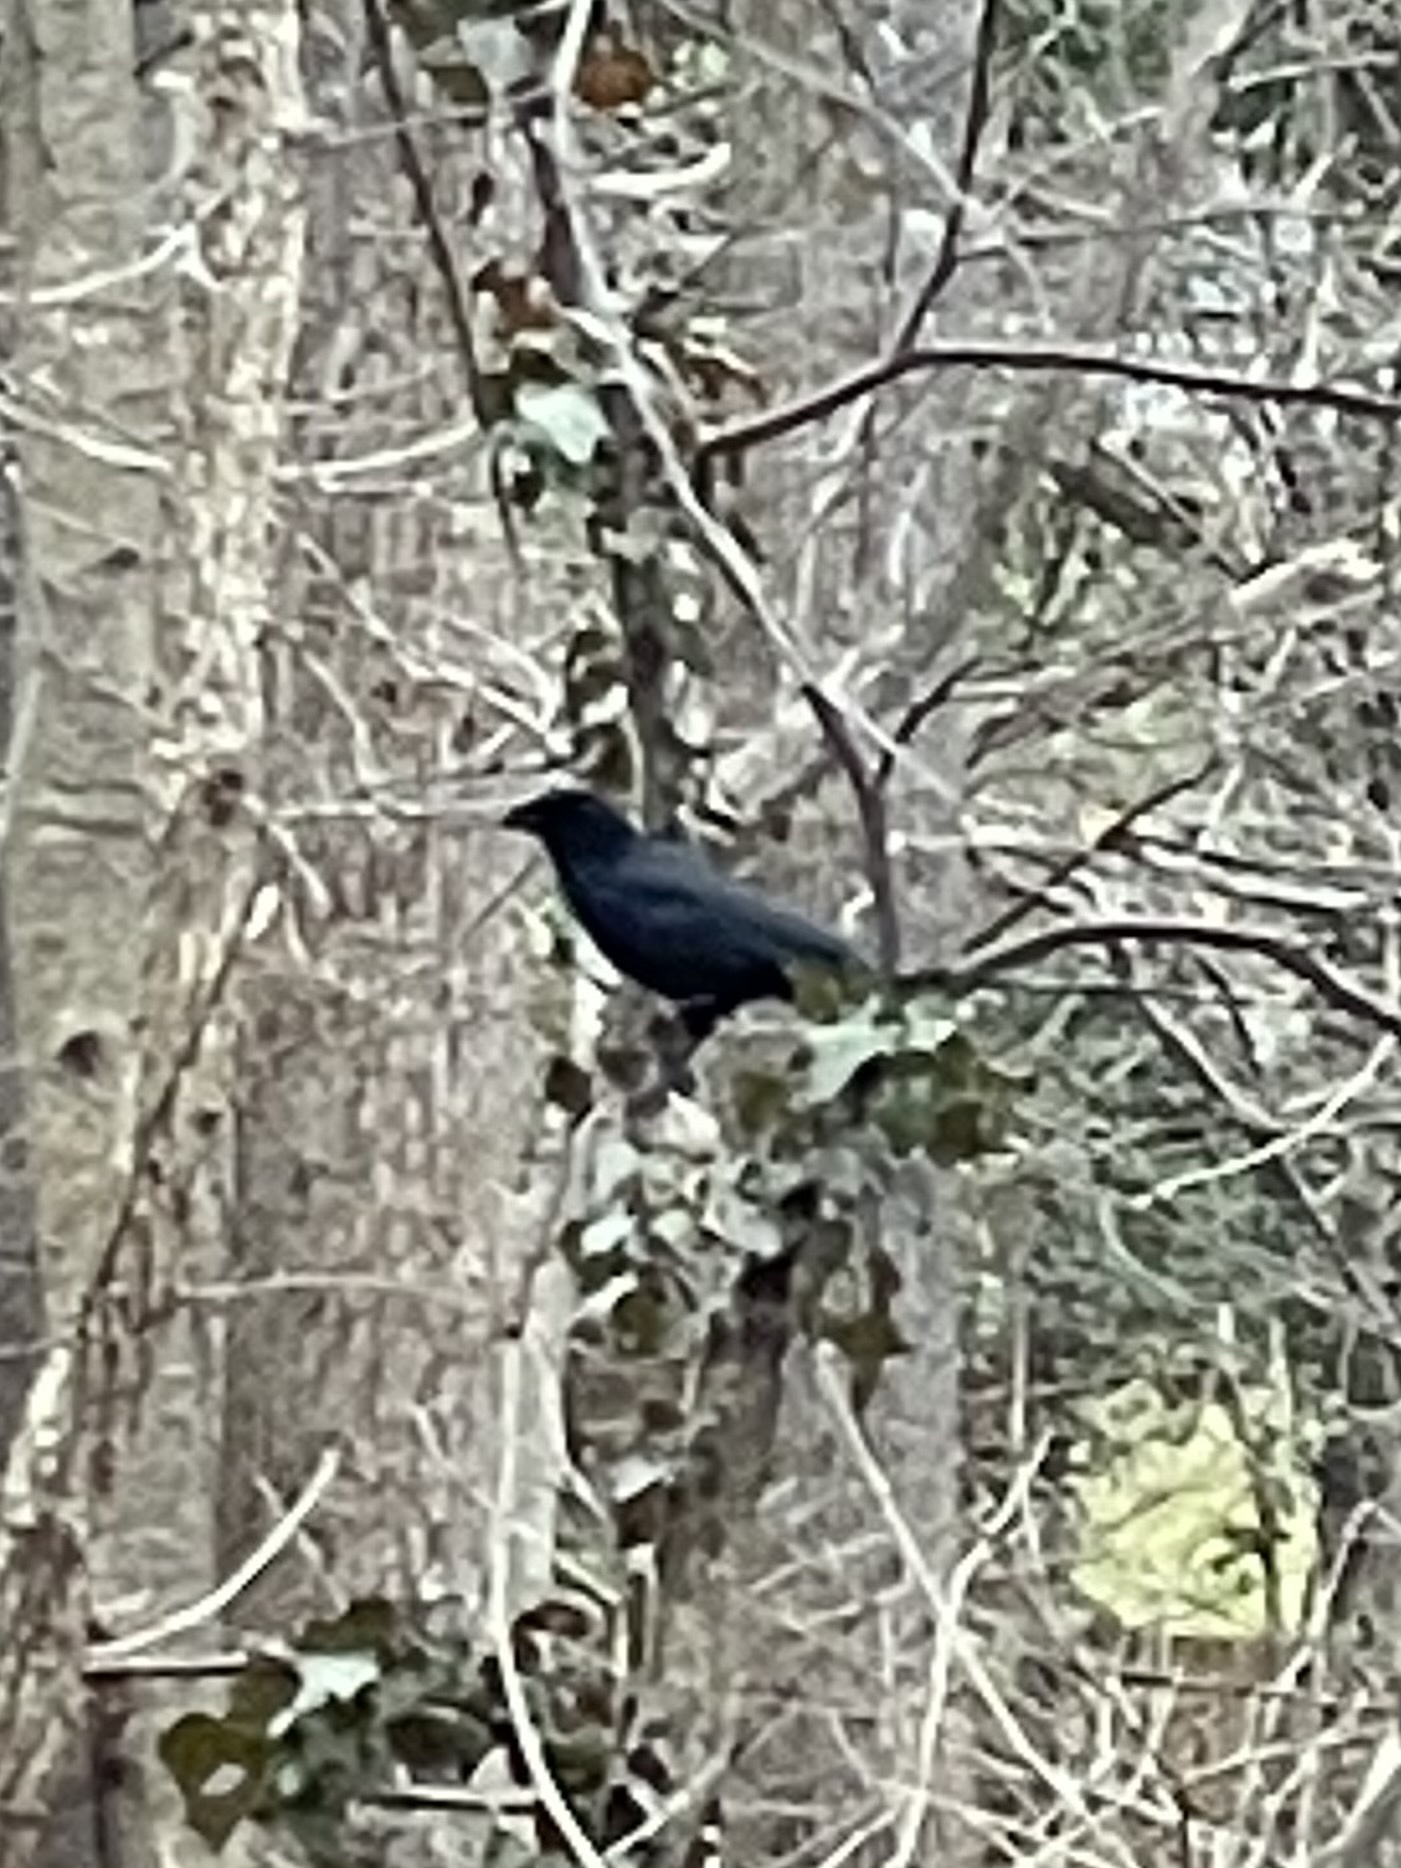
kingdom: Animalia
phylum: Chordata
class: Aves
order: Passeriformes
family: Corvidae
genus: Corvus
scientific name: Corvus brachyrhynchos
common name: American crow
